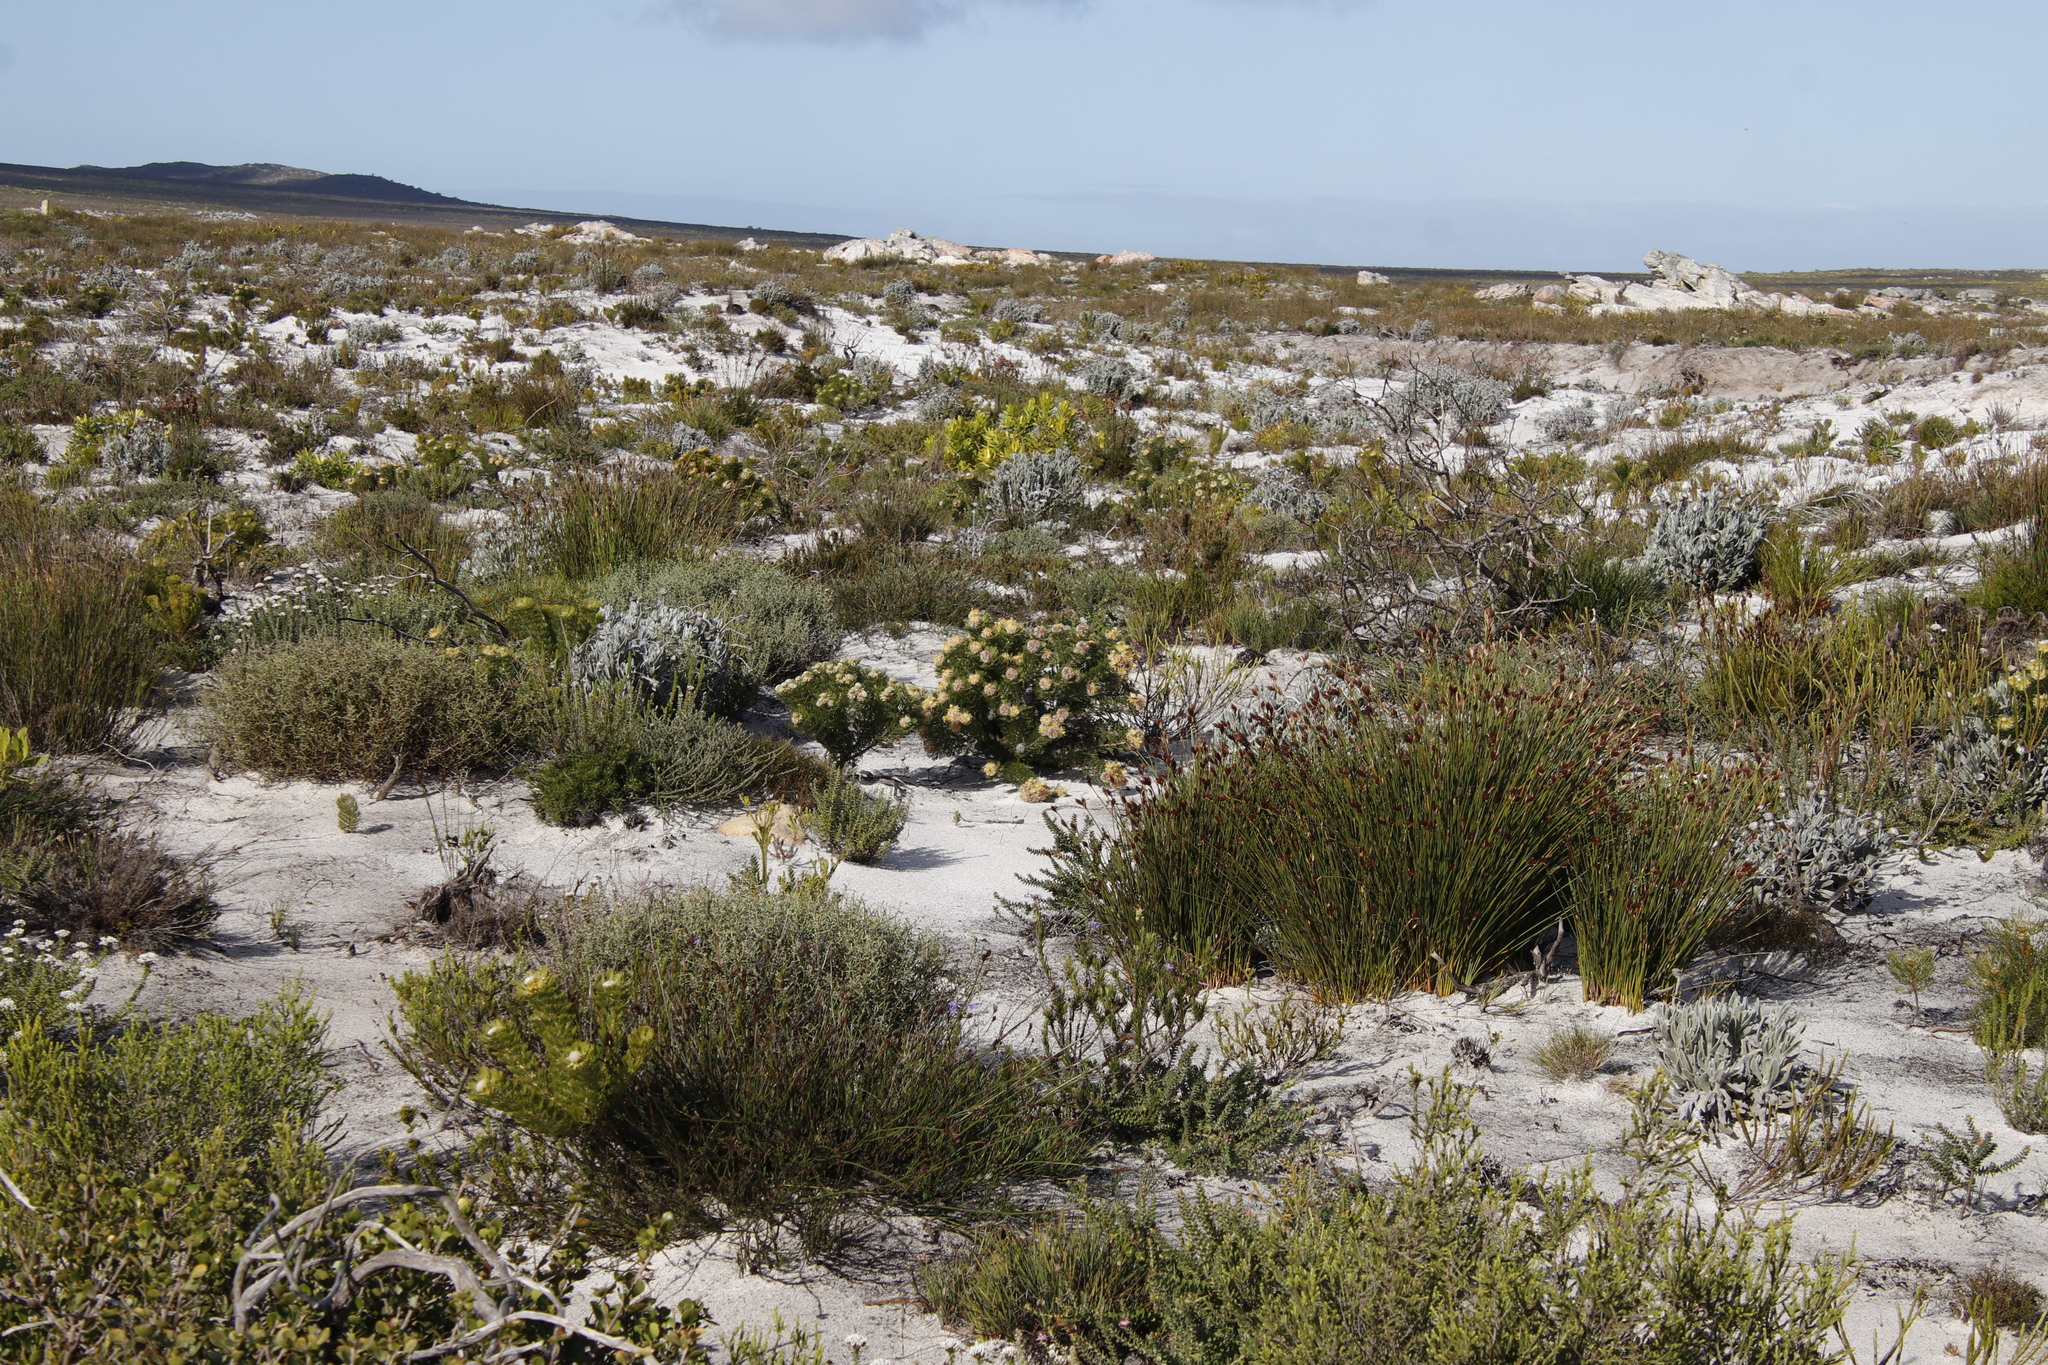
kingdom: Plantae
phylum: Tracheophyta
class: Magnoliopsida
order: Proteales
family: Proteaceae
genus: Serruria
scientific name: Serruria villosa
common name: Golden spiderhead
